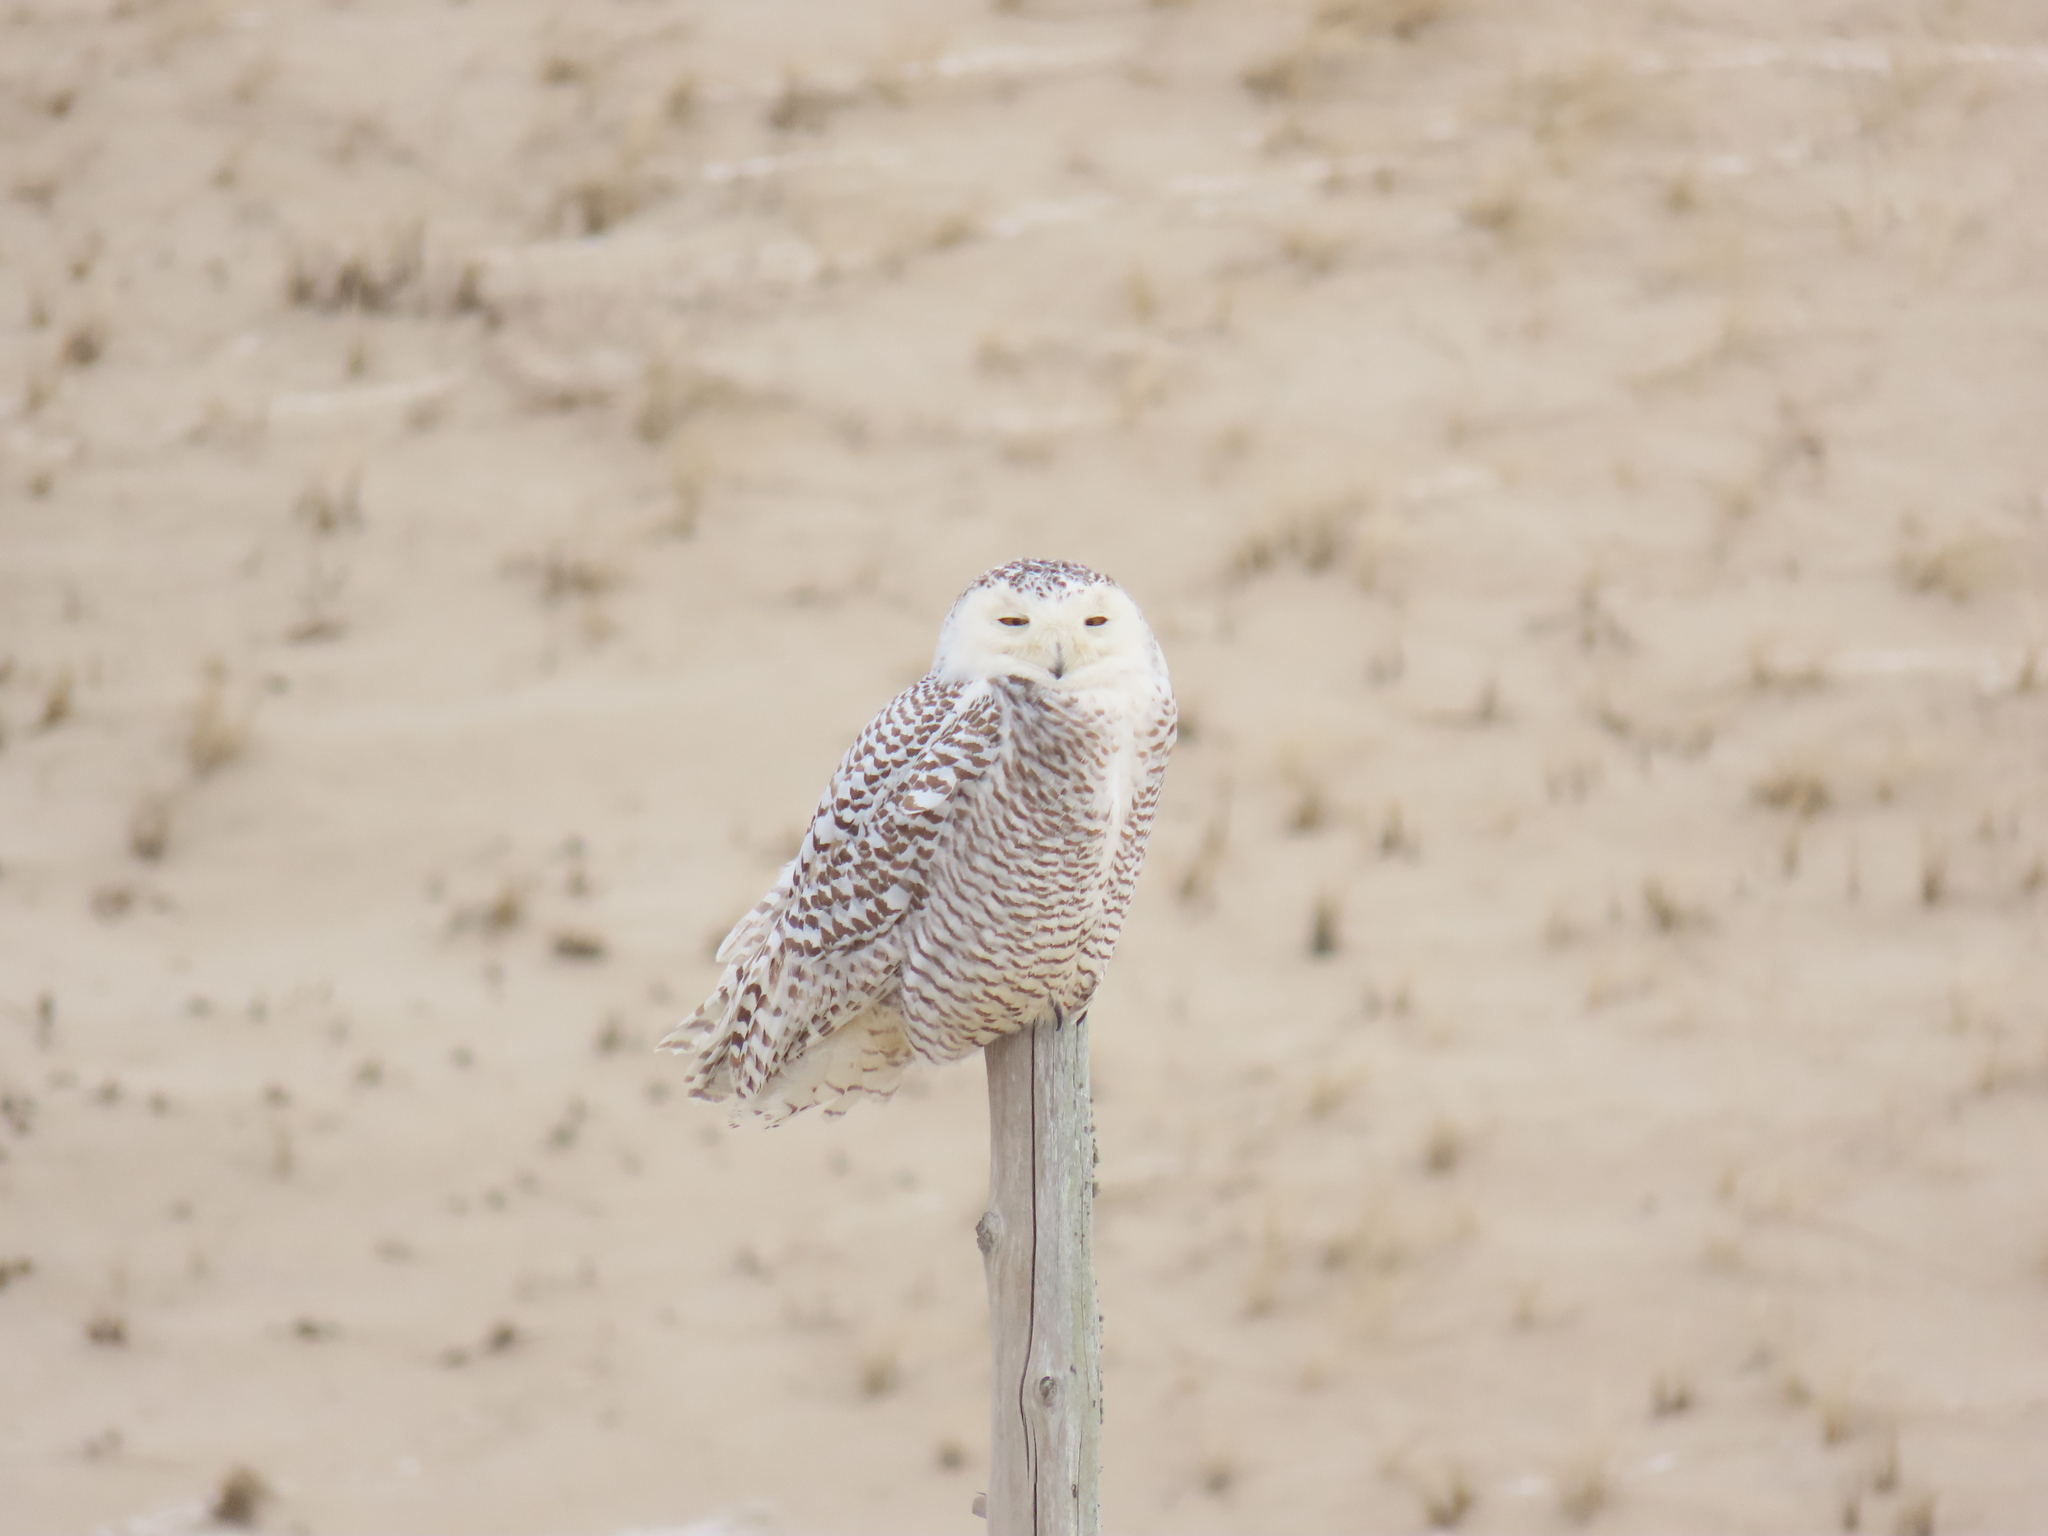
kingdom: Animalia
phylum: Chordata
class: Aves
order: Strigiformes
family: Strigidae
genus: Bubo
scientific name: Bubo scandiacus
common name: Snowy owl
